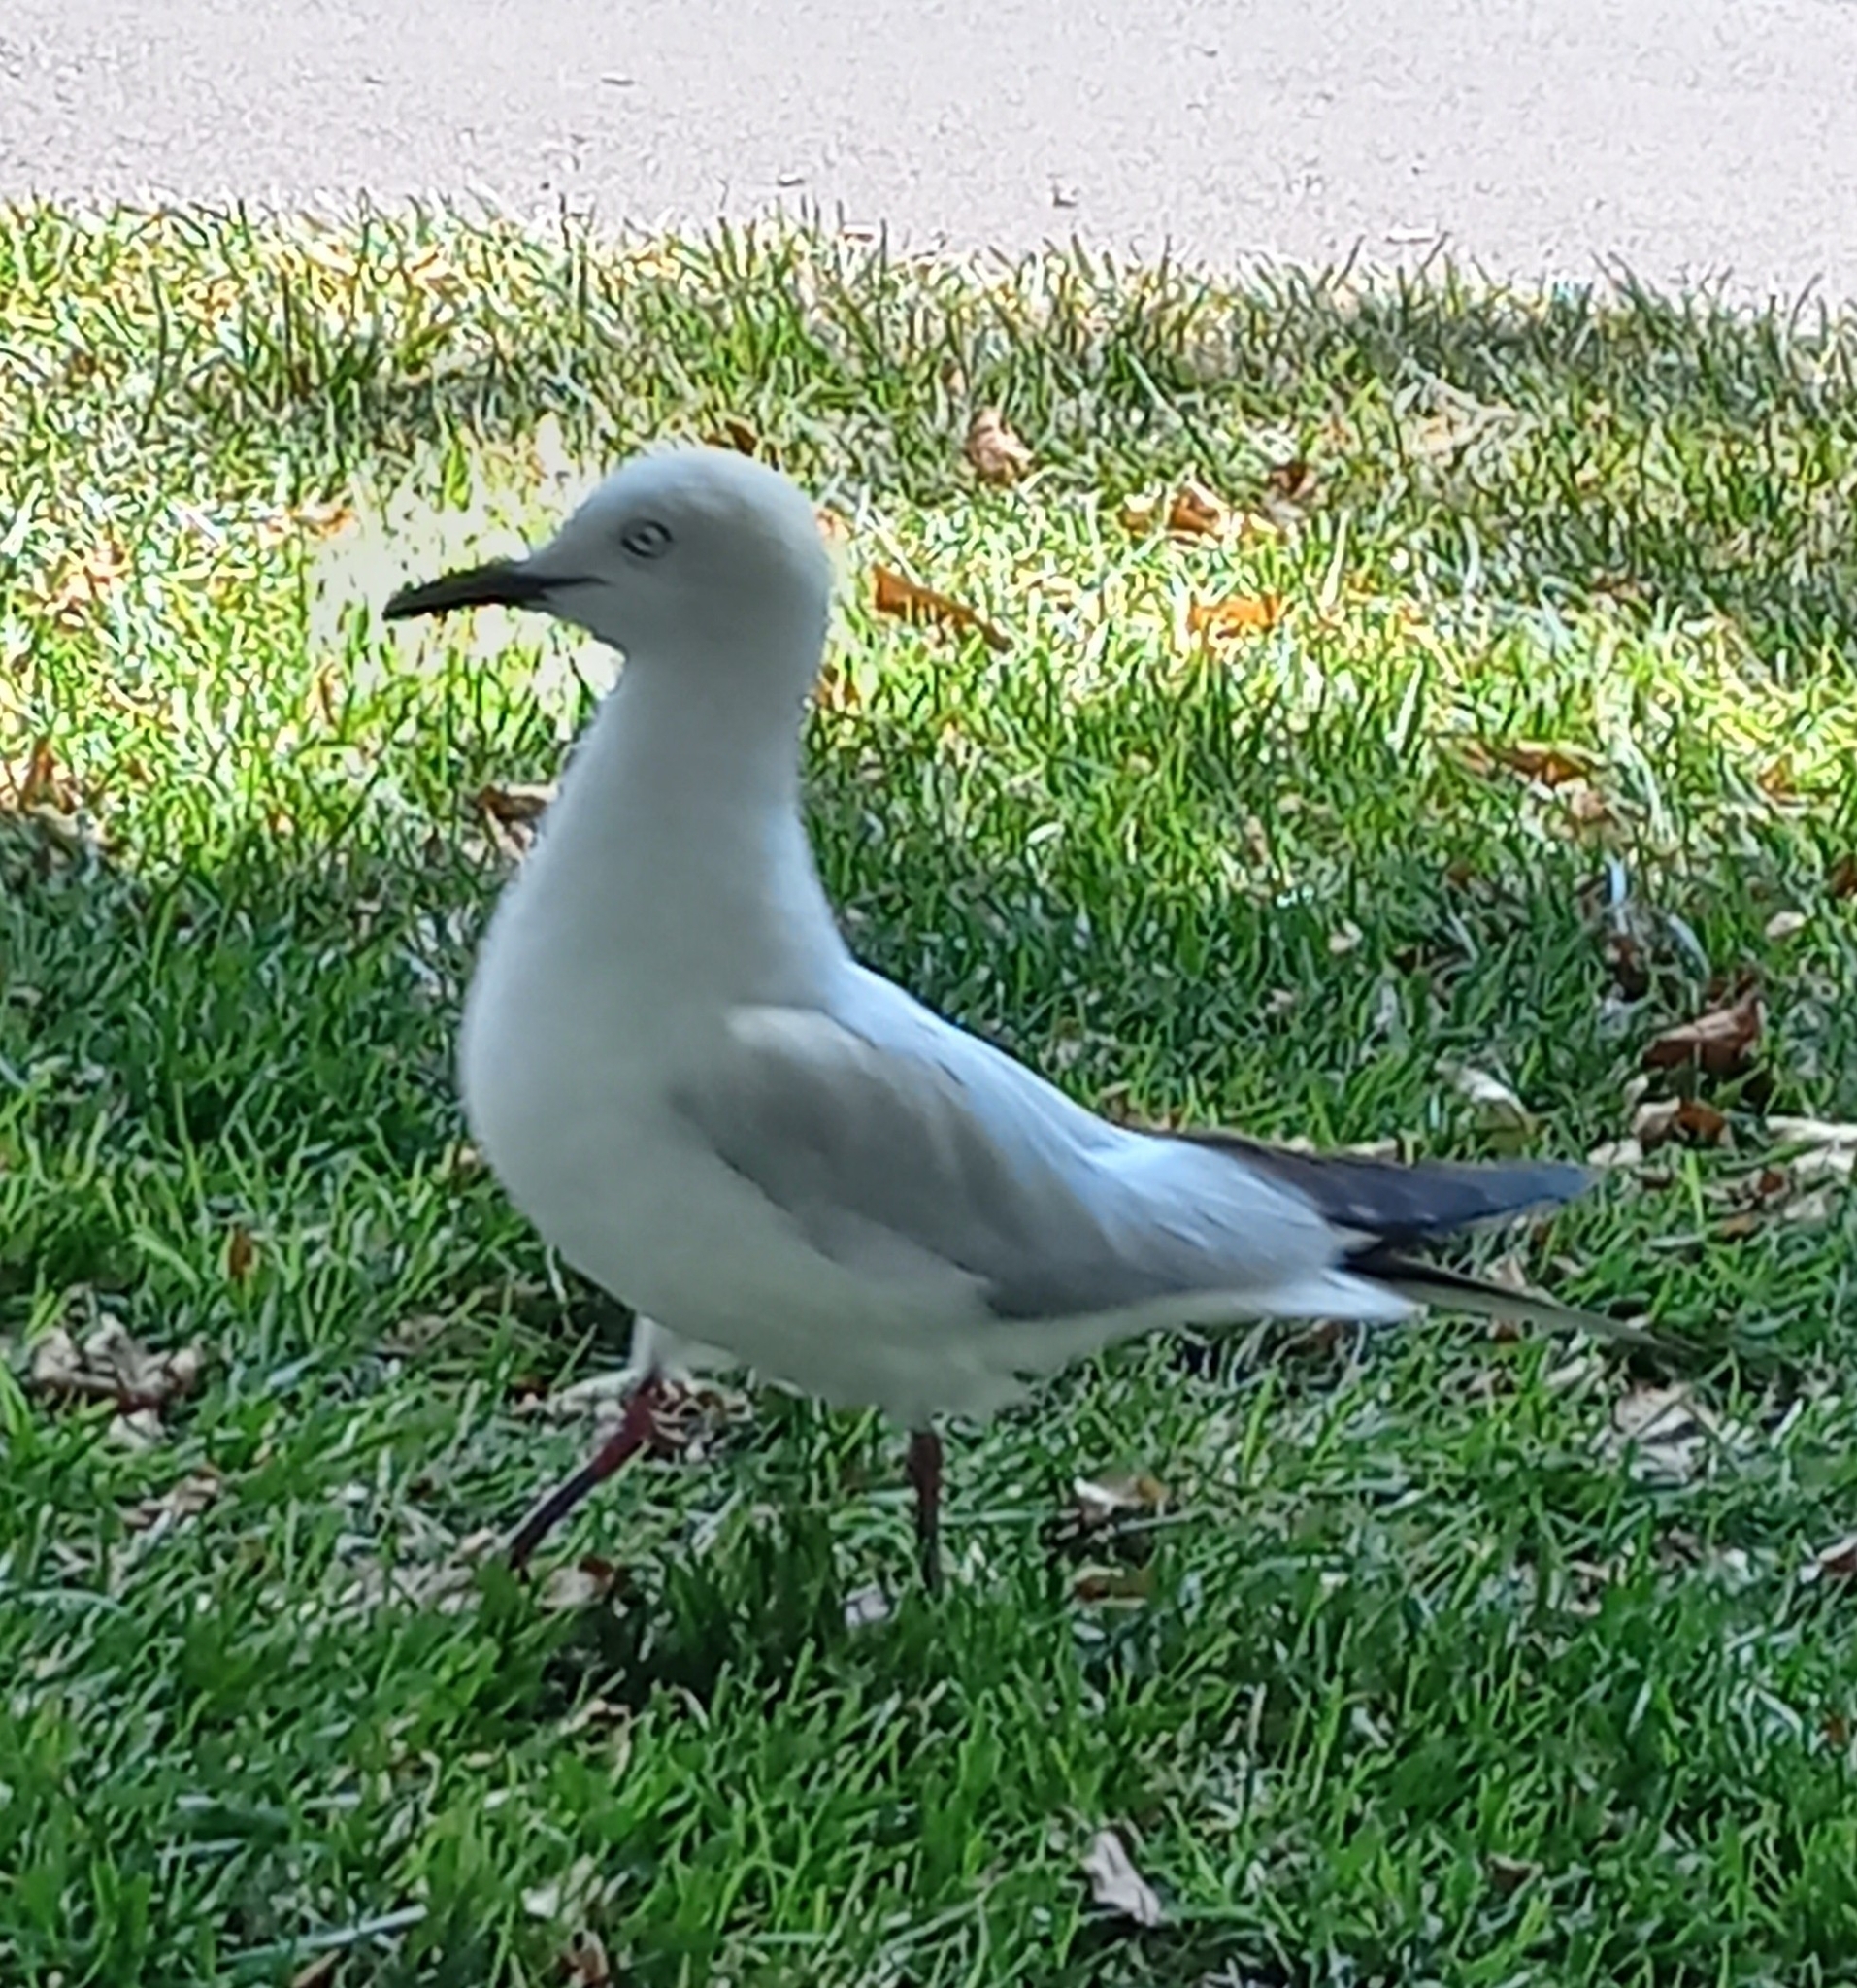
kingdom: Animalia
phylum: Chordata
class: Aves
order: Charadriiformes
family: Laridae
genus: Chroicocephalus
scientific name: Chroicocephalus bulleri
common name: Black-billed gull
